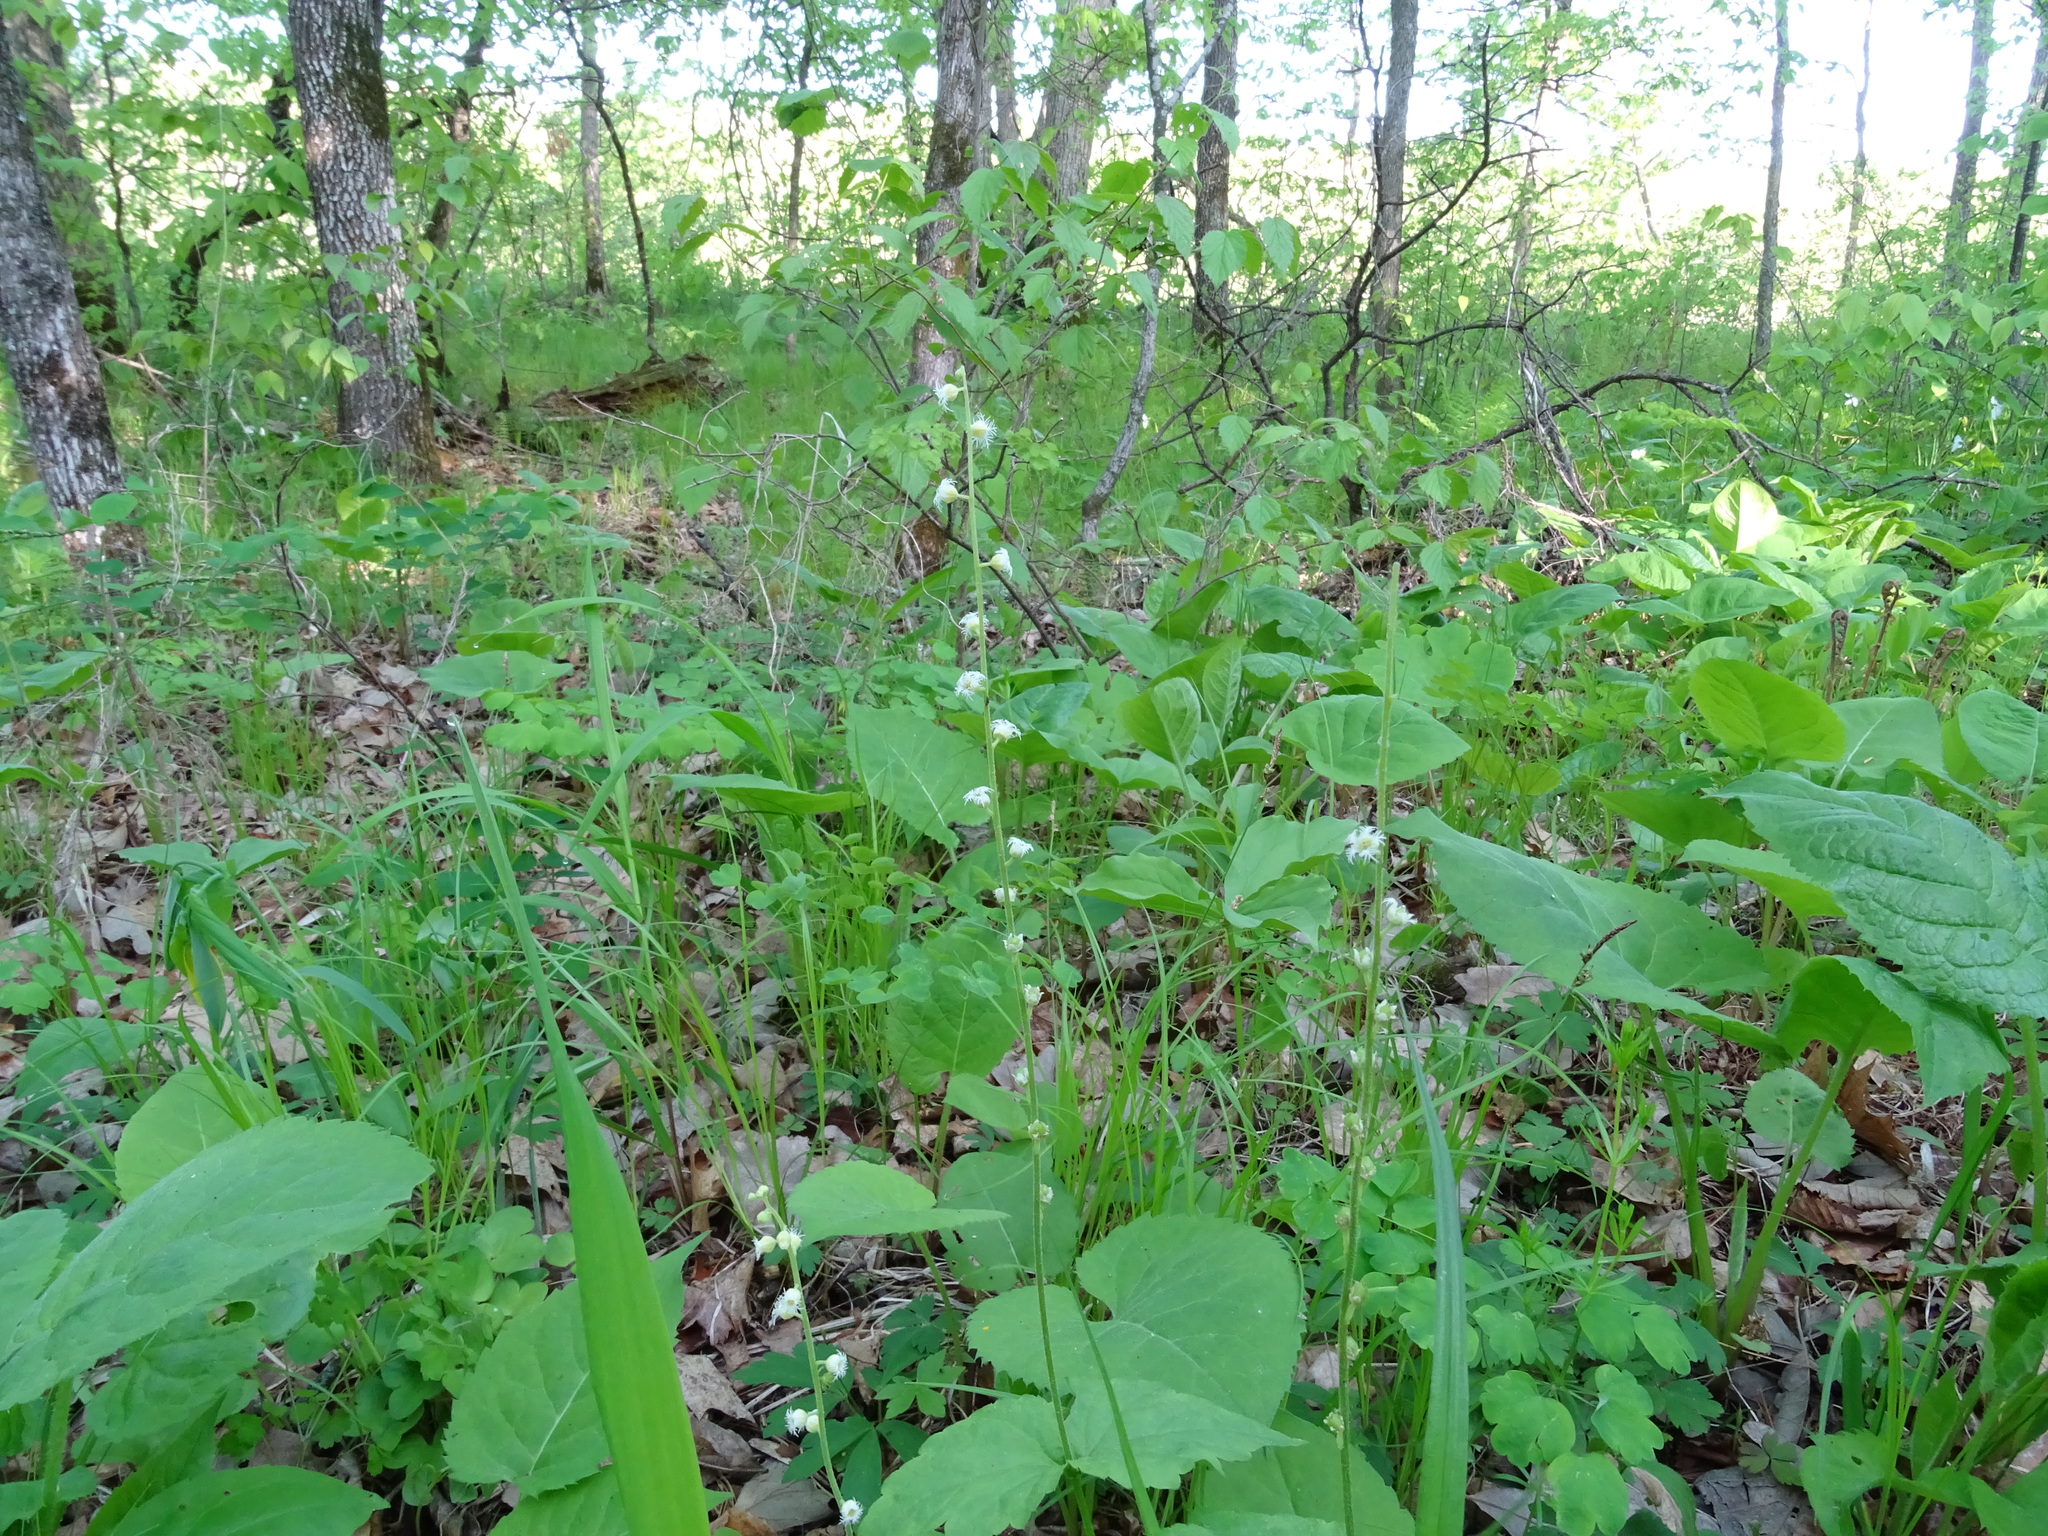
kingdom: Plantae
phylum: Tracheophyta
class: Magnoliopsida
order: Saxifragales
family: Saxifragaceae
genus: Mitella
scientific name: Mitella diphylla
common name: Coolwort
